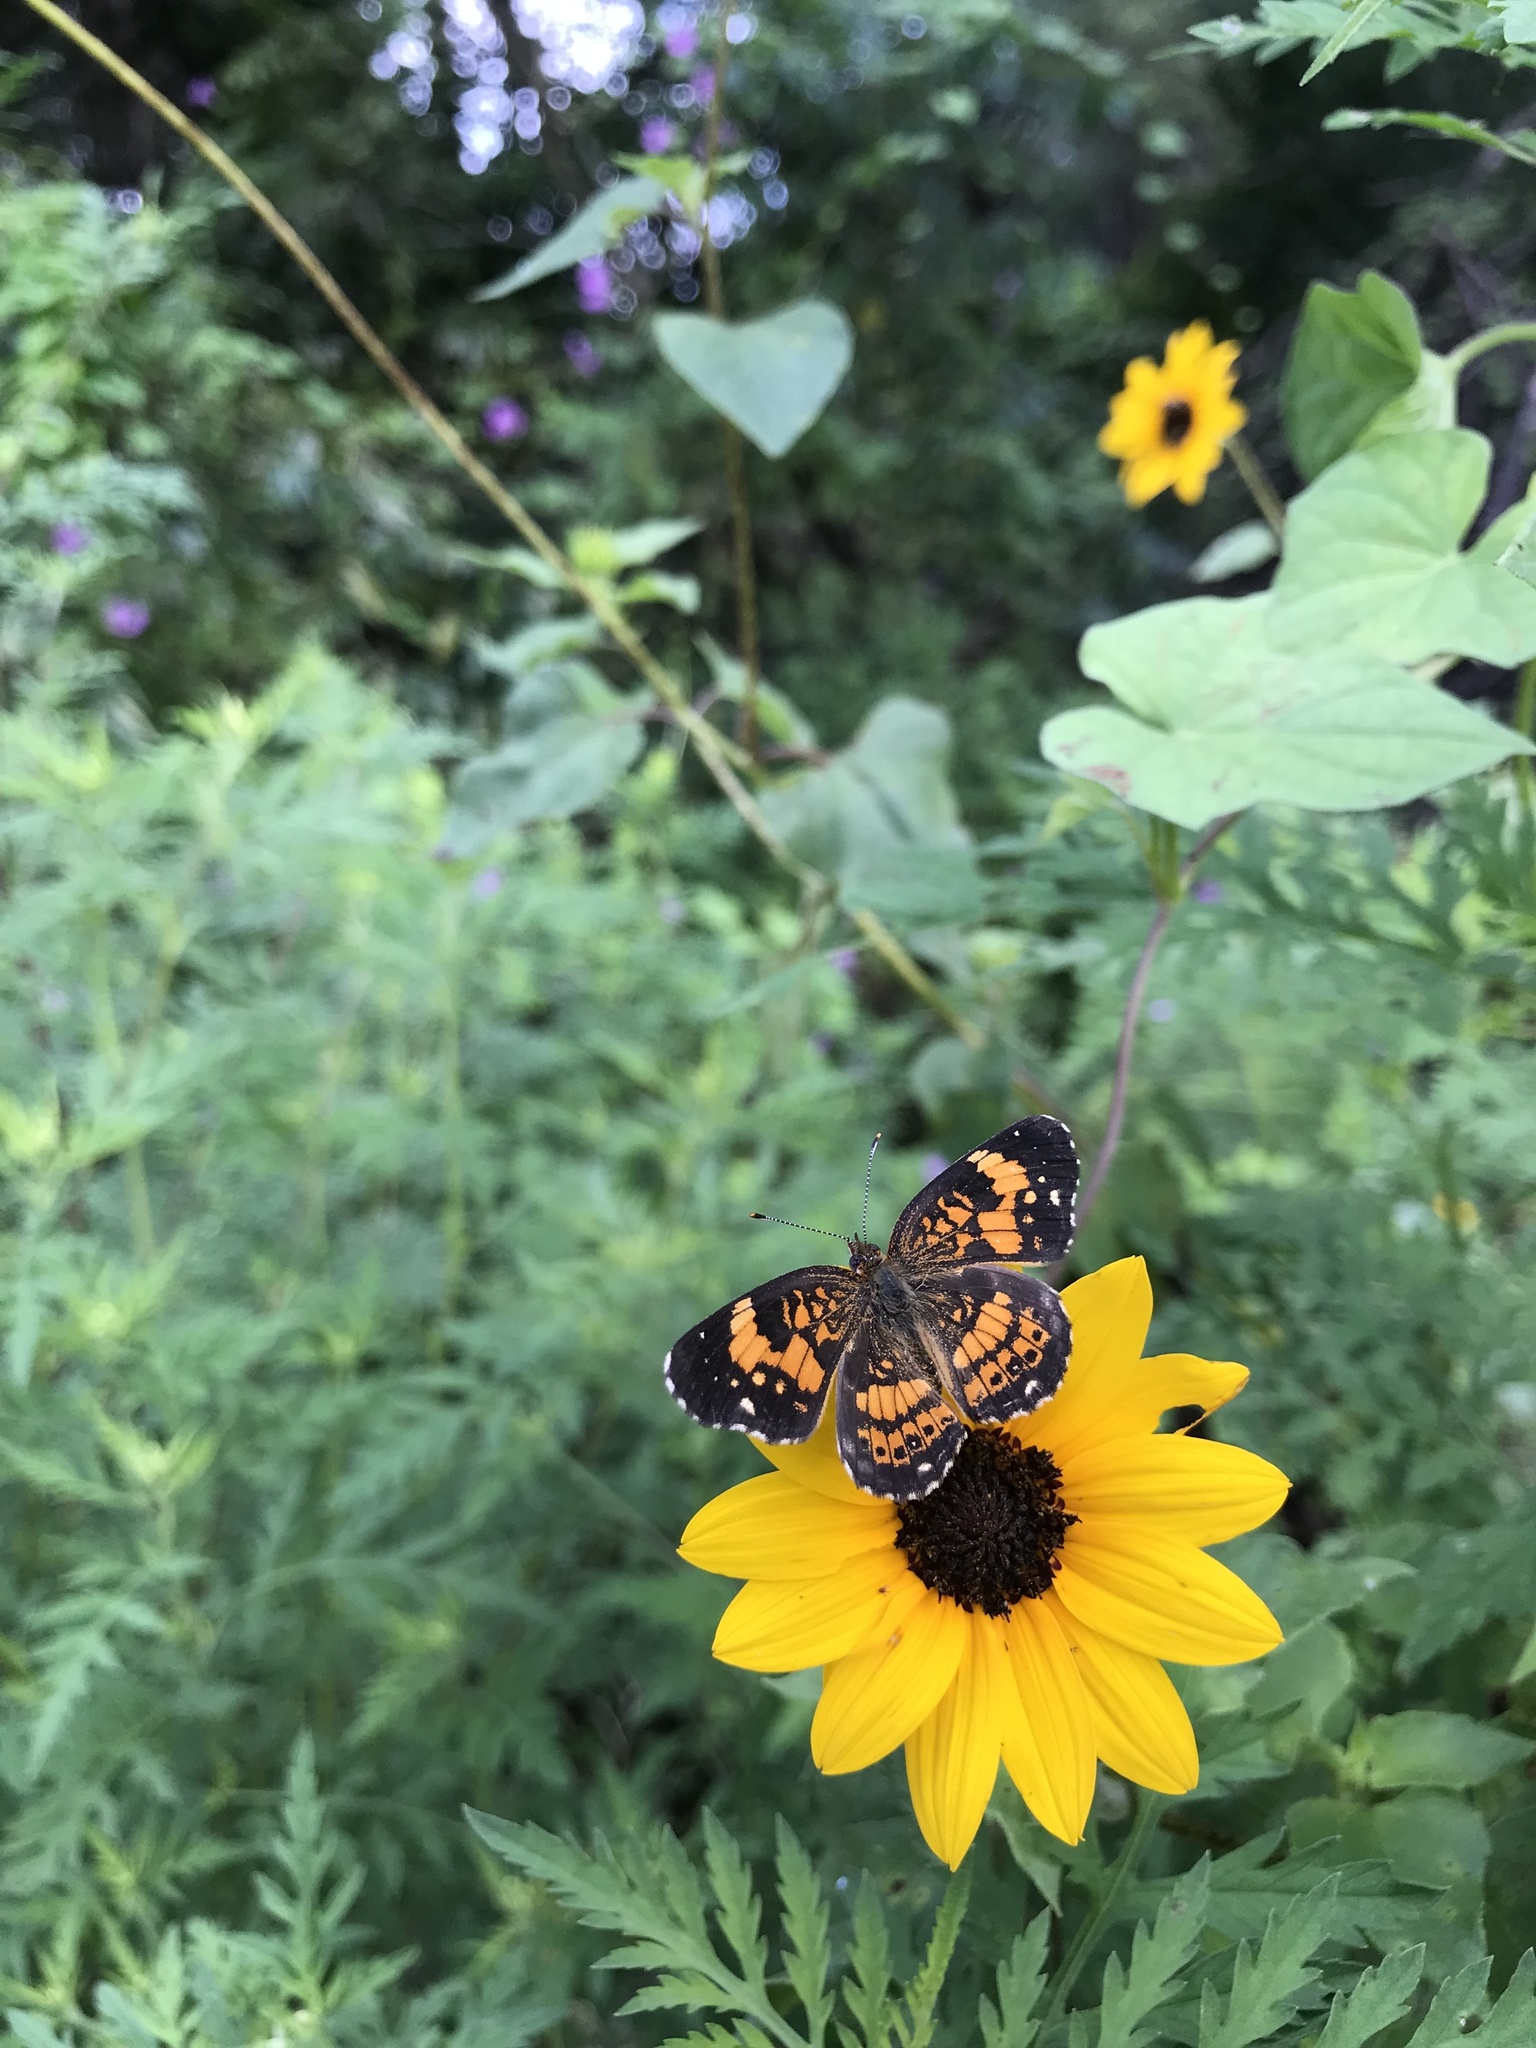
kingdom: Animalia
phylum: Arthropoda
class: Insecta
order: Lepidoptera
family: Nymphalidae
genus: Chlosyne
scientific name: Chlosyne nycteis
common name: Silvery checkerspot
